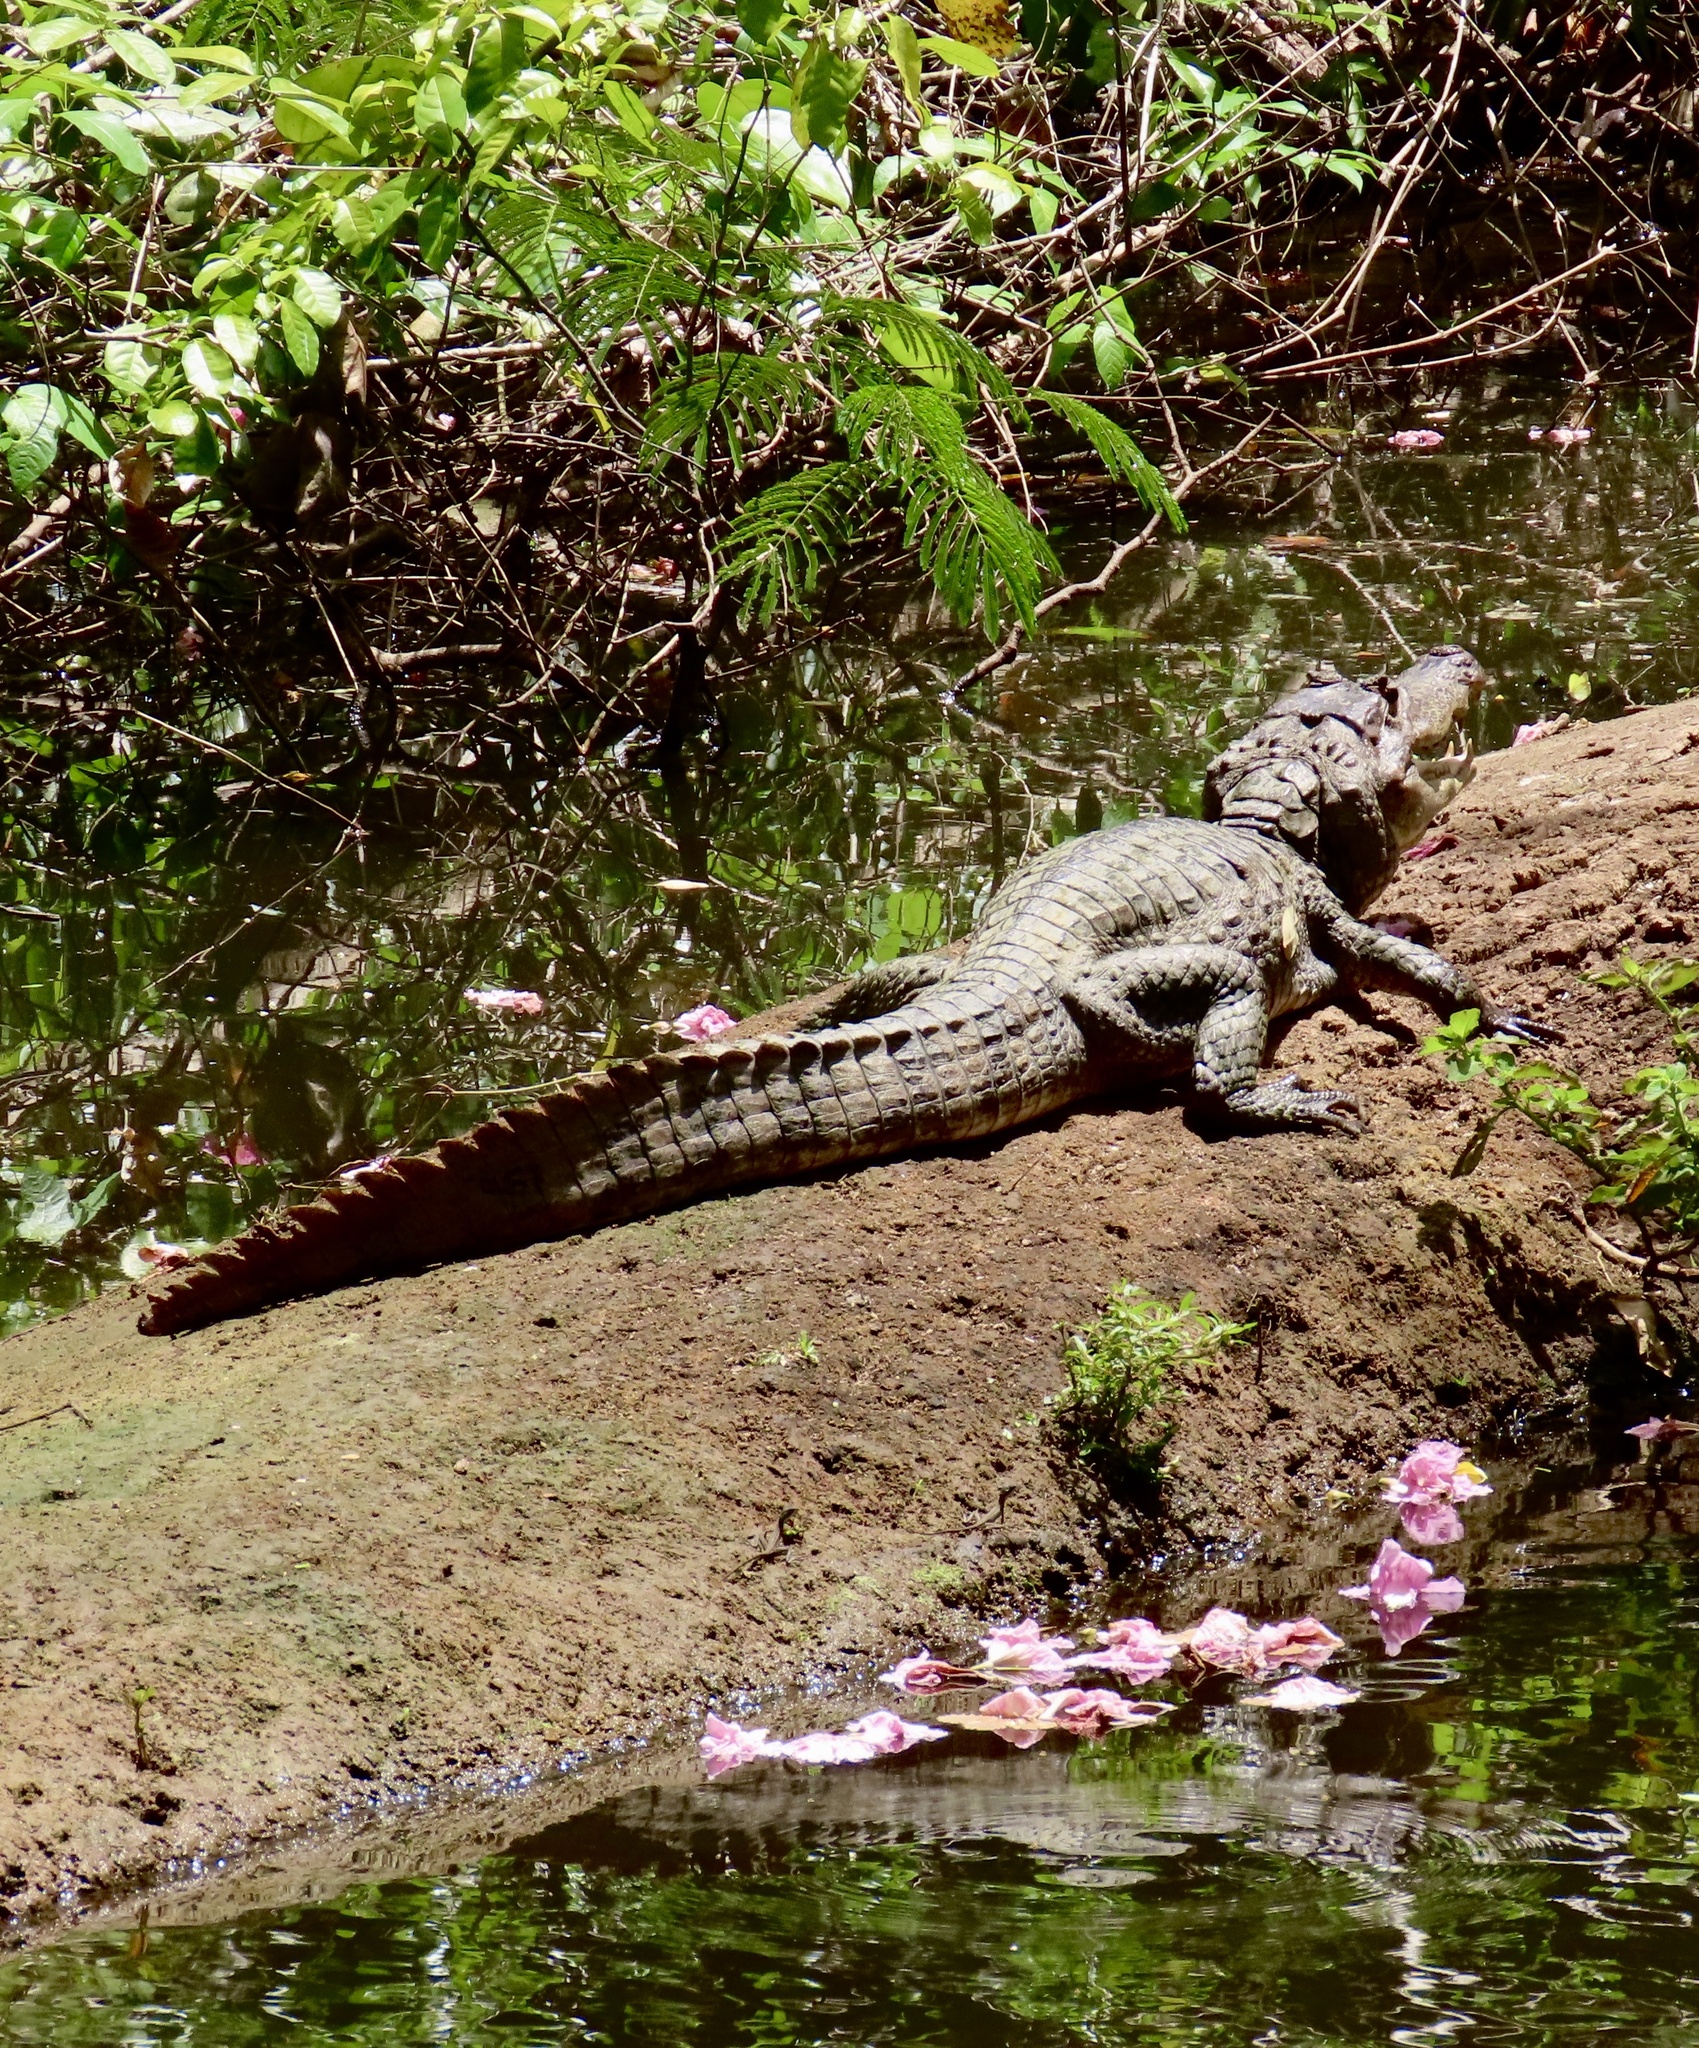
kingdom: Animalia
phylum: Chordata
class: Crocodylia
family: Alligatoridae
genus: Caiman
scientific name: Caiman crocodilus
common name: Common caiman
